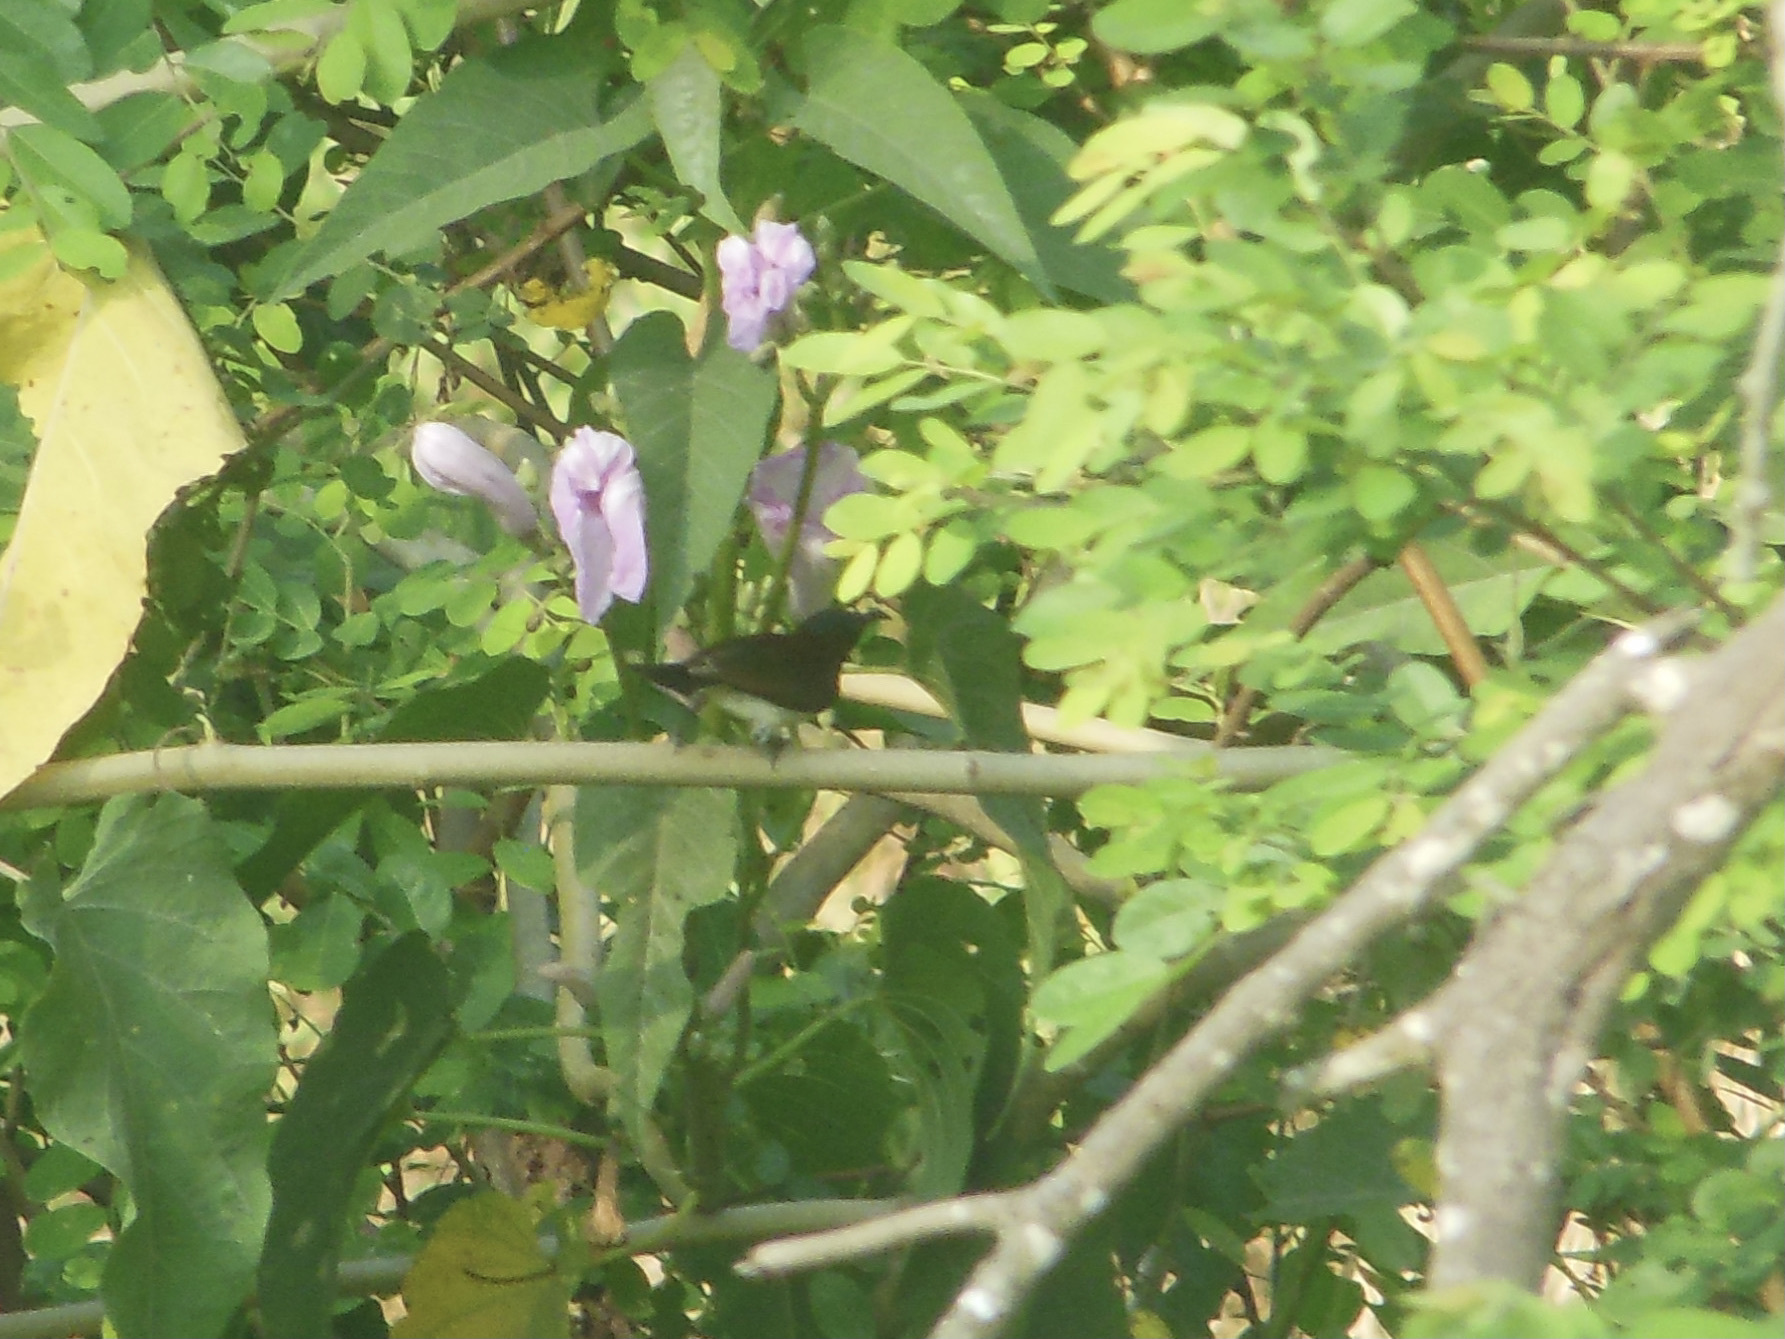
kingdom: Animalia
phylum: Chordata
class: Aves
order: Passeriformes
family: Nectariniidae
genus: Leptocoma
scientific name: Leptocoma zeylonica
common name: Purple-rumped sunbird
